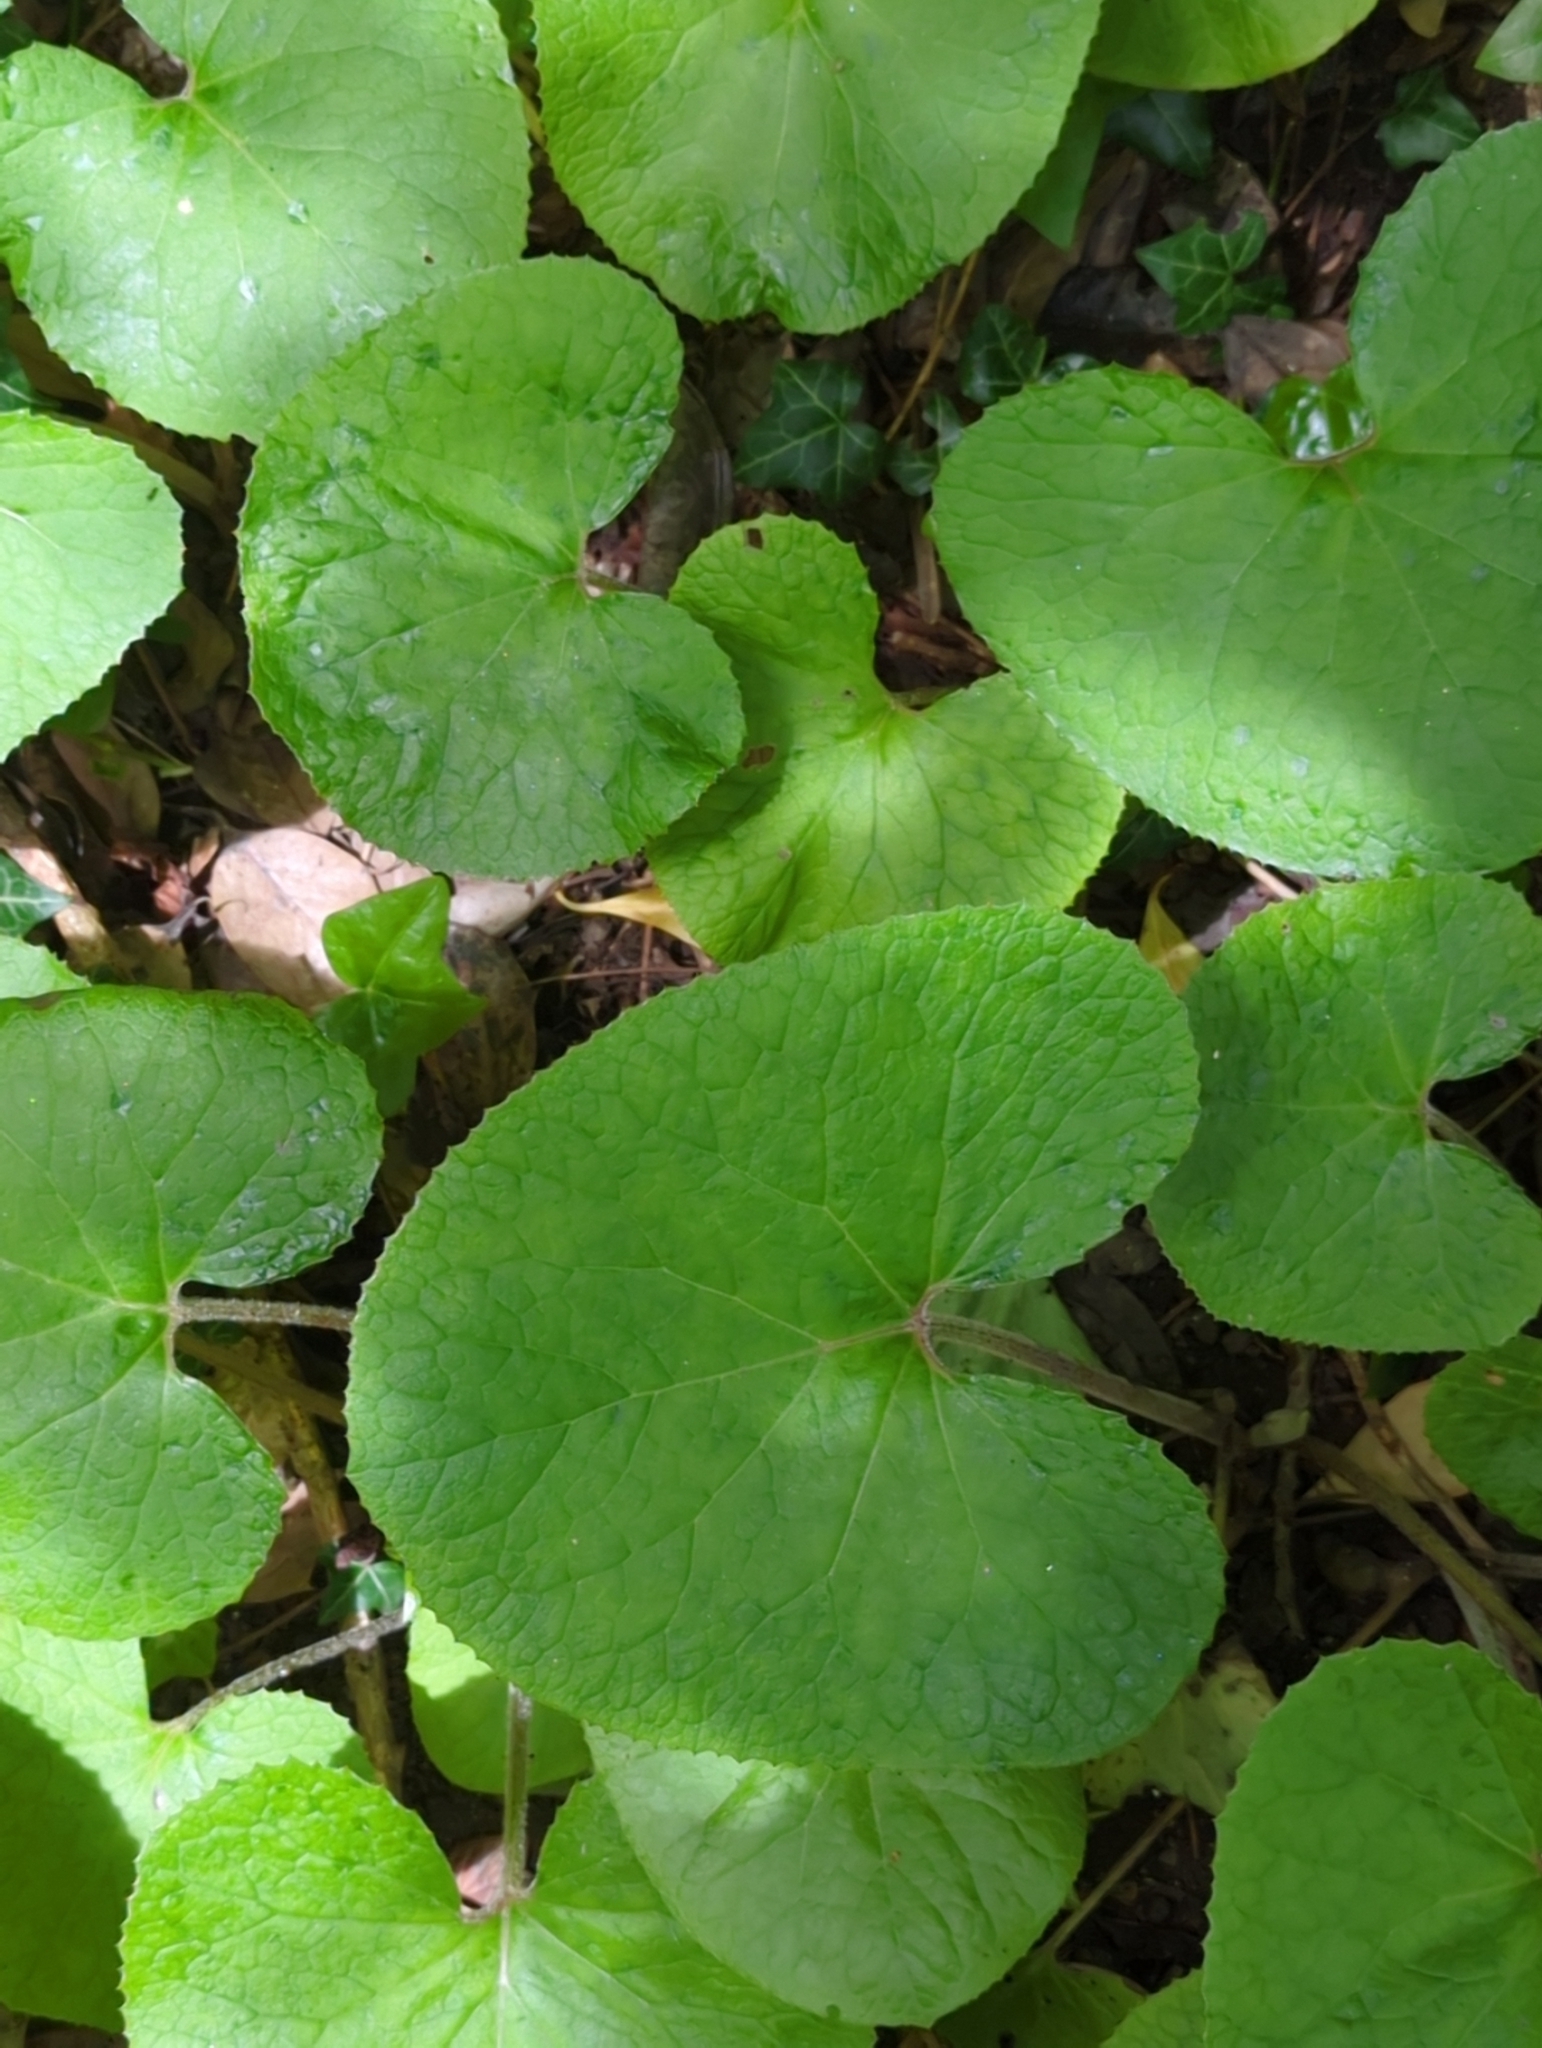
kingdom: Plantae
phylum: Tracheophyta
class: Magnoliopsida
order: Asterales
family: Asteraceae
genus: Petasites
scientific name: Petasites pyrenaicus
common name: Winter heliotrope
